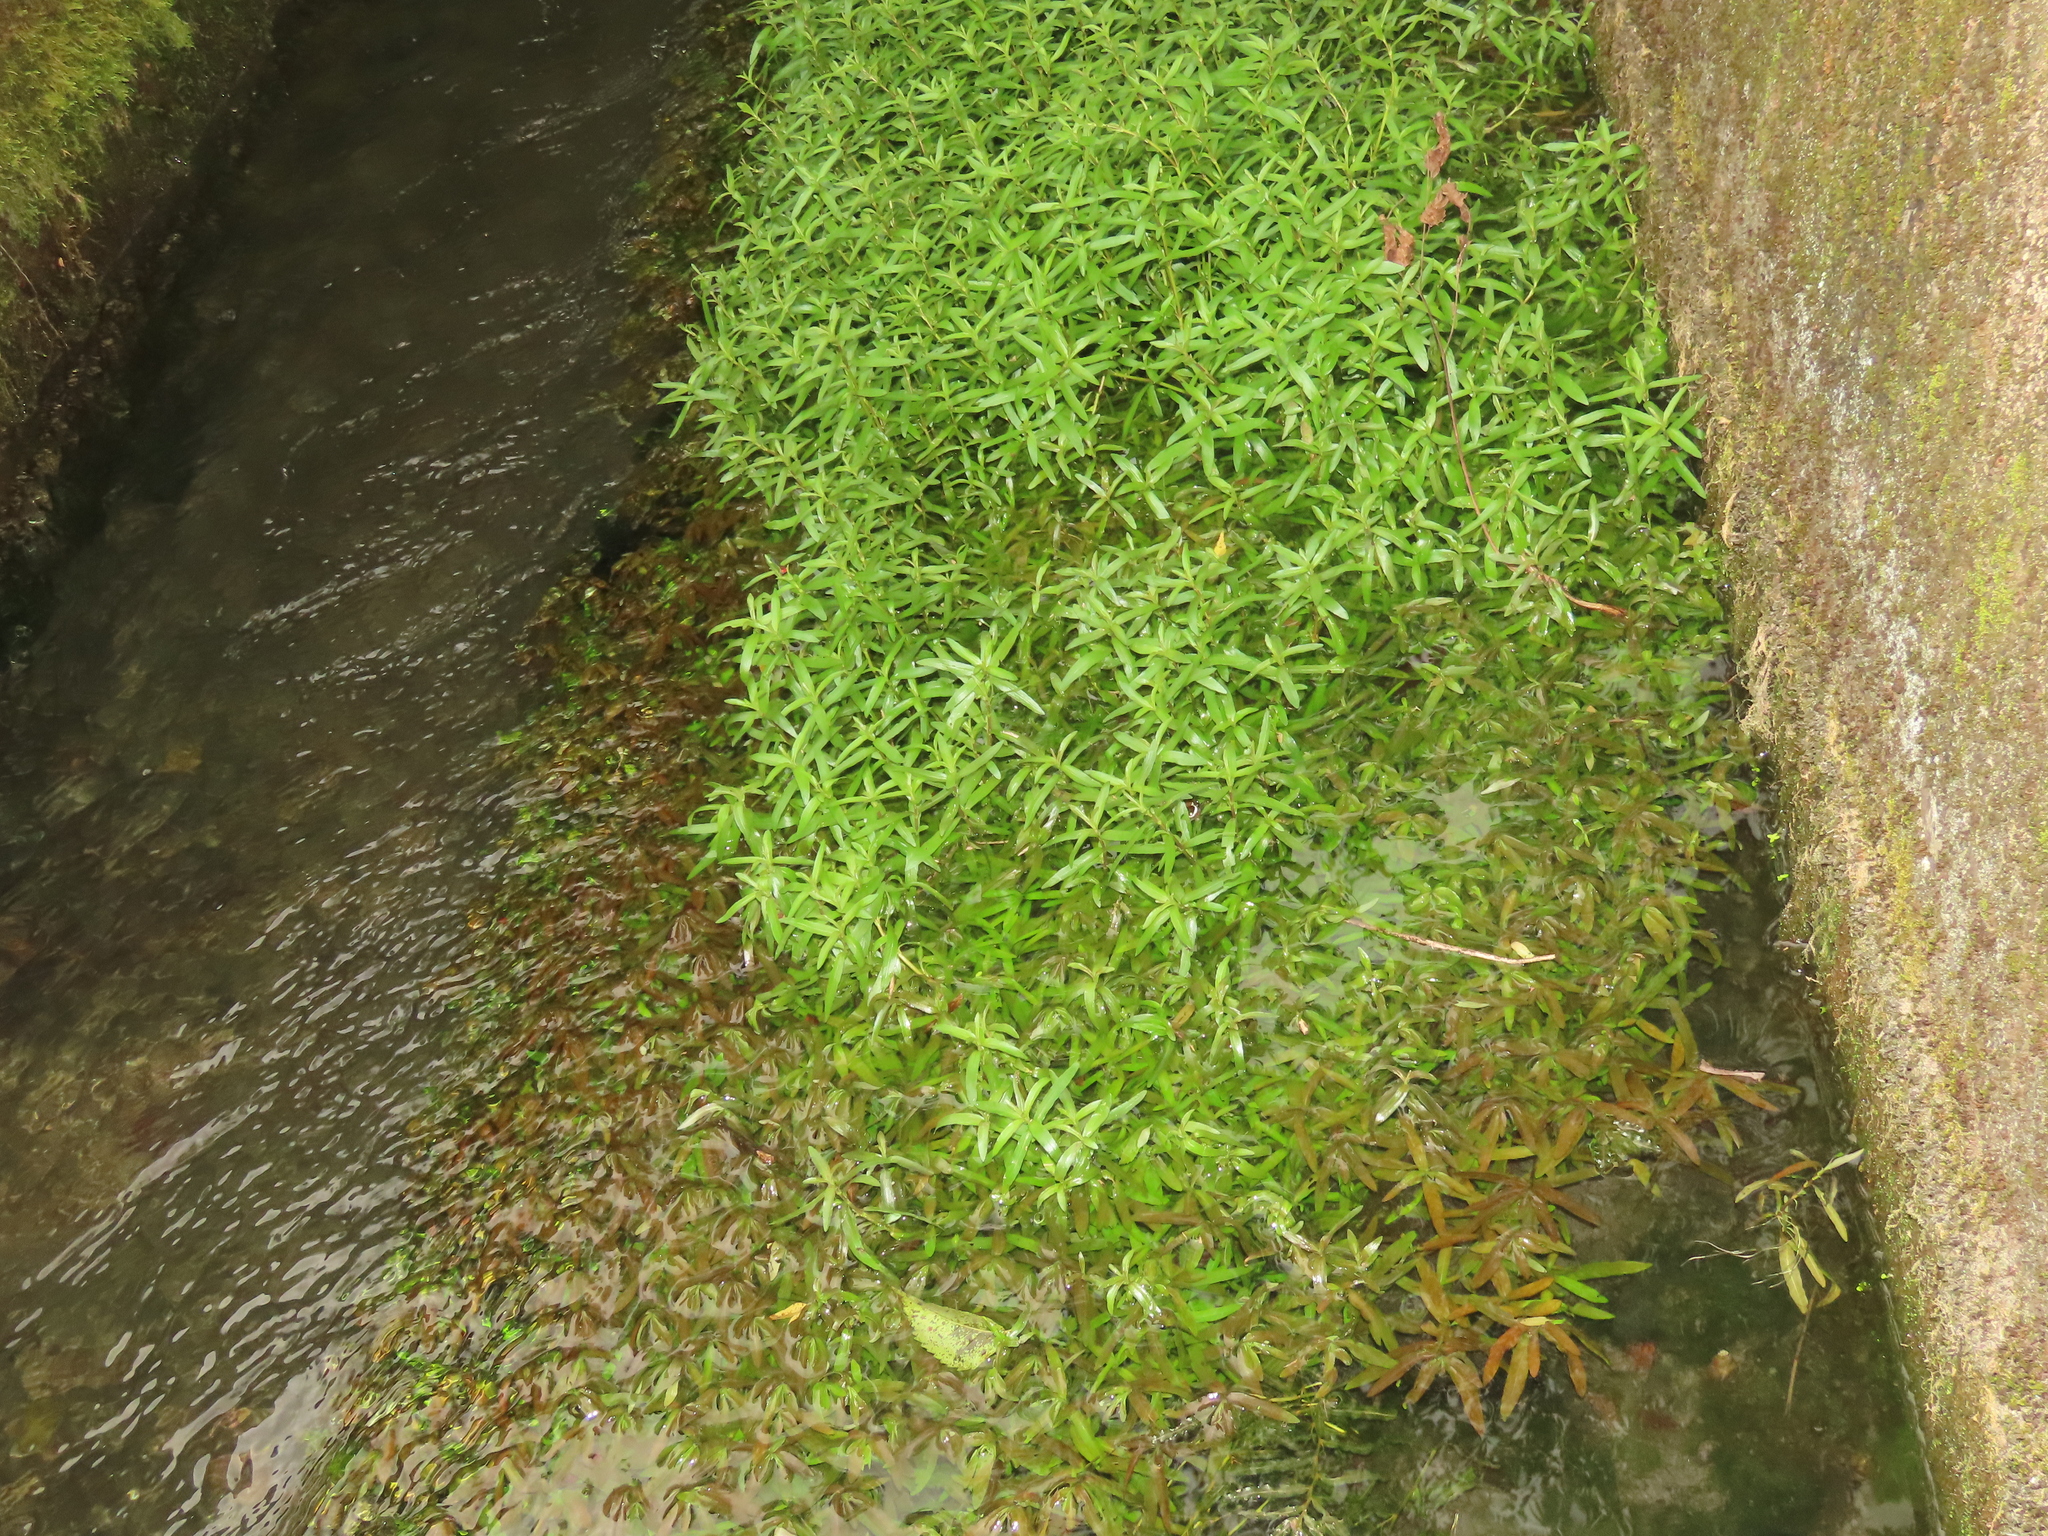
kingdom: Plantae
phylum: Tracheophyta
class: Magnoliopsida
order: Lamiales
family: Acanthaceae
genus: Hygrophila
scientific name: Hygrophila polysperma
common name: Indian swampweed
